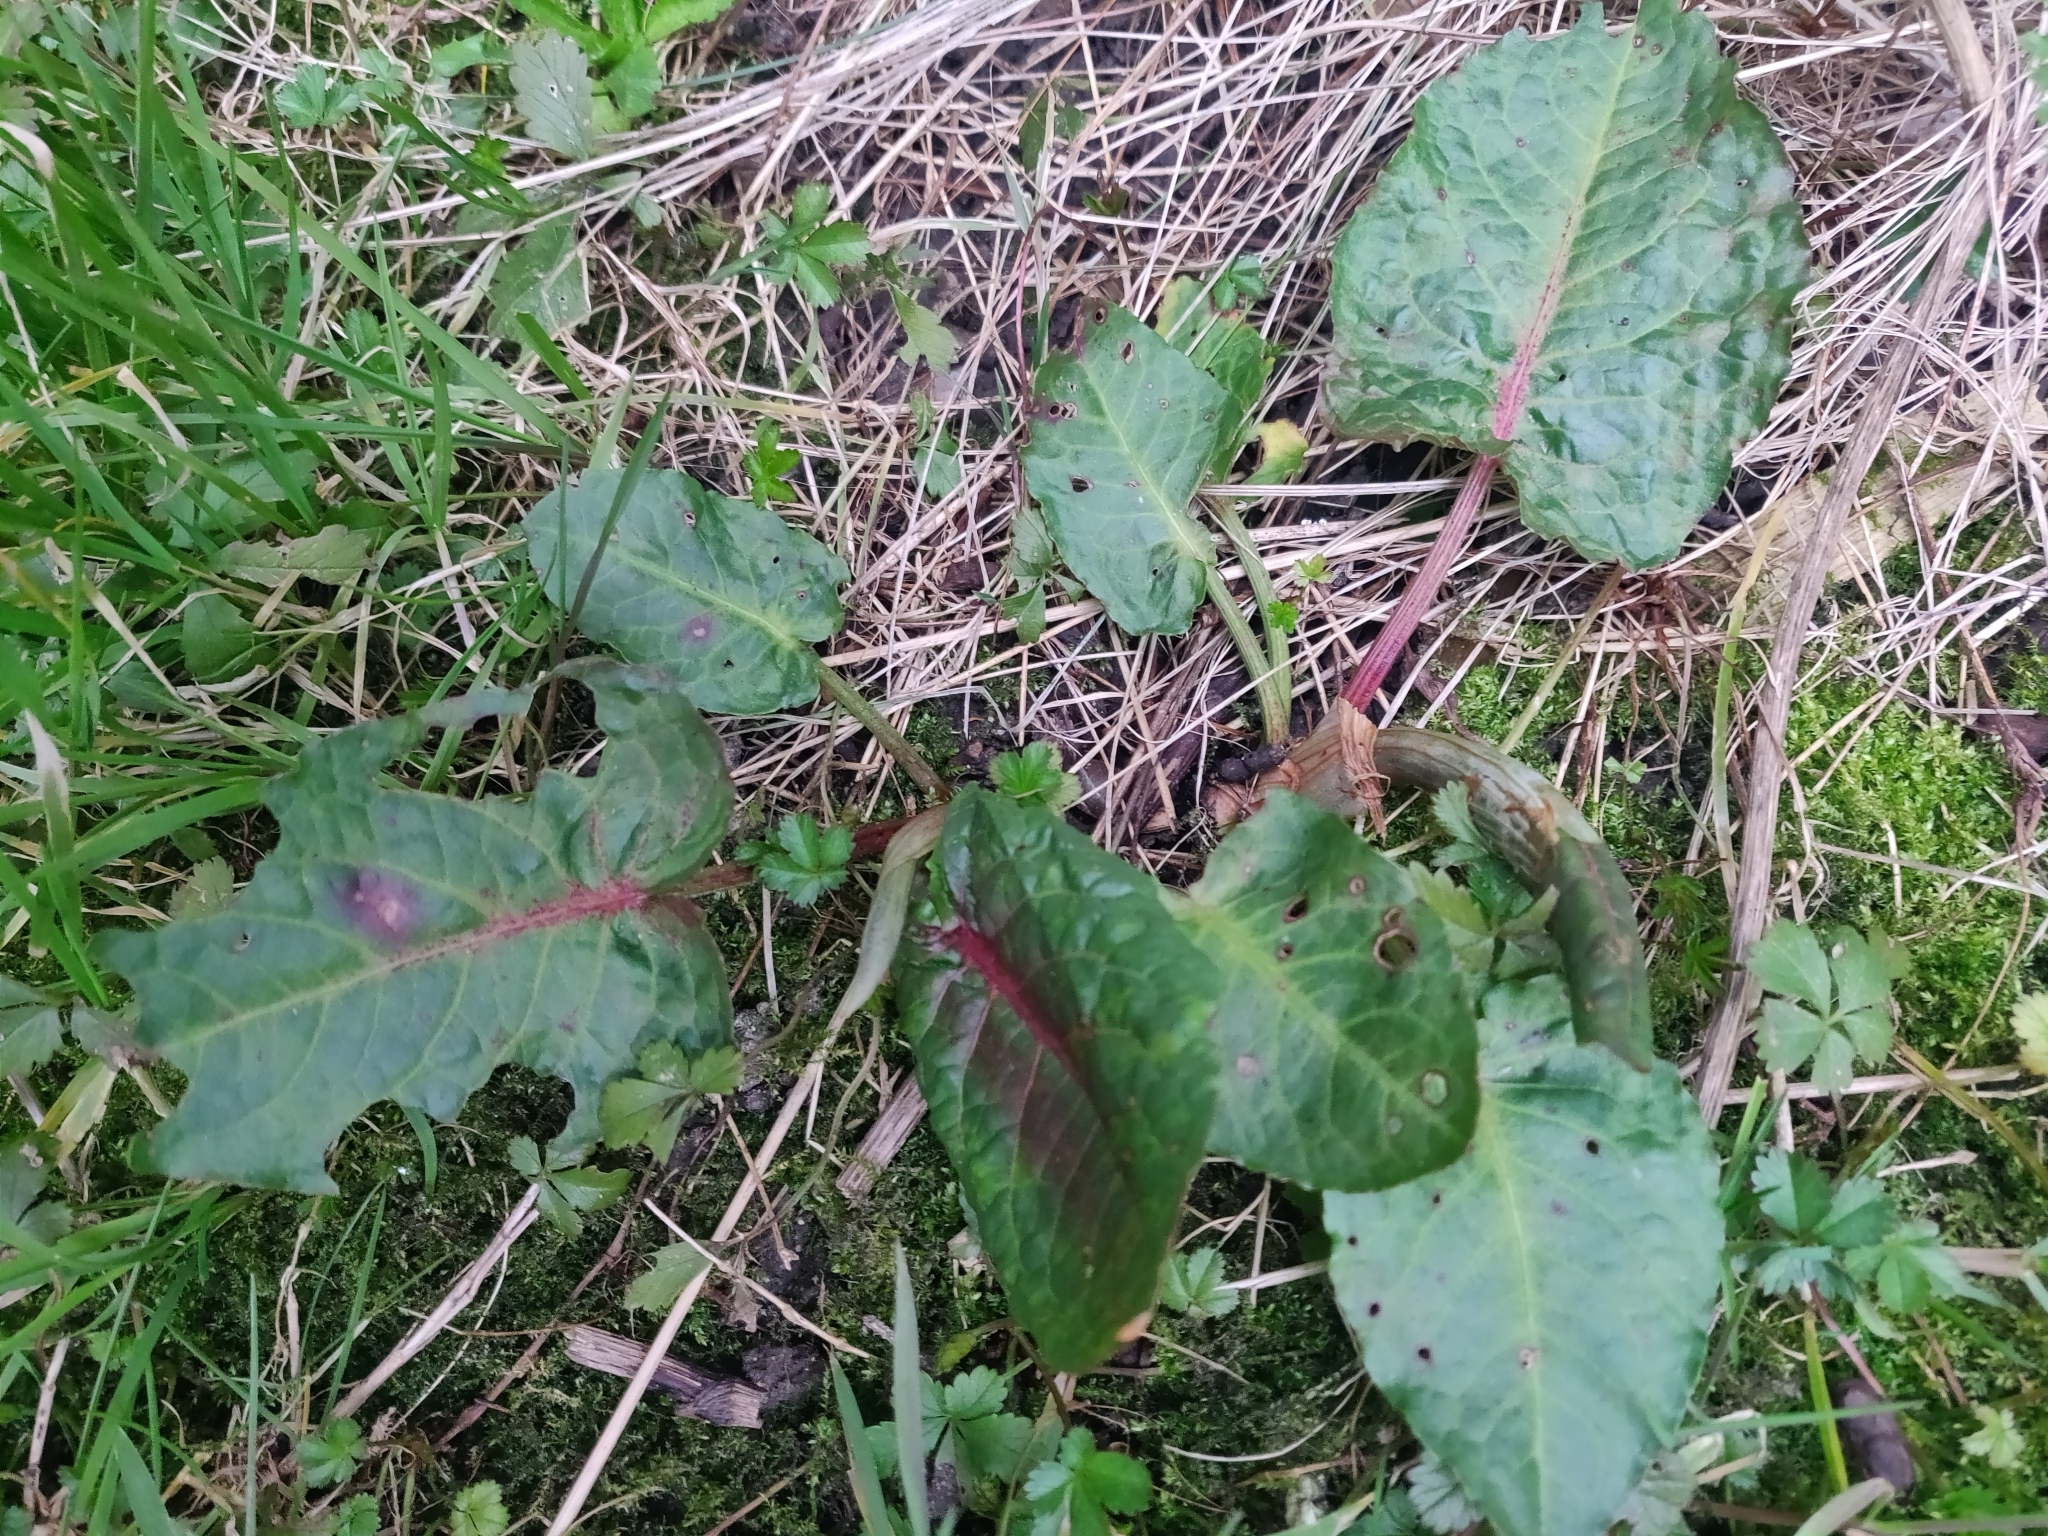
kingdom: Plantae
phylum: Tracheophyta
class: Magnoliopsida
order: Caryophyllales
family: Polygonaceae
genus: Rumex
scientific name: Rumex obtusifolius
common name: Bitter dock
